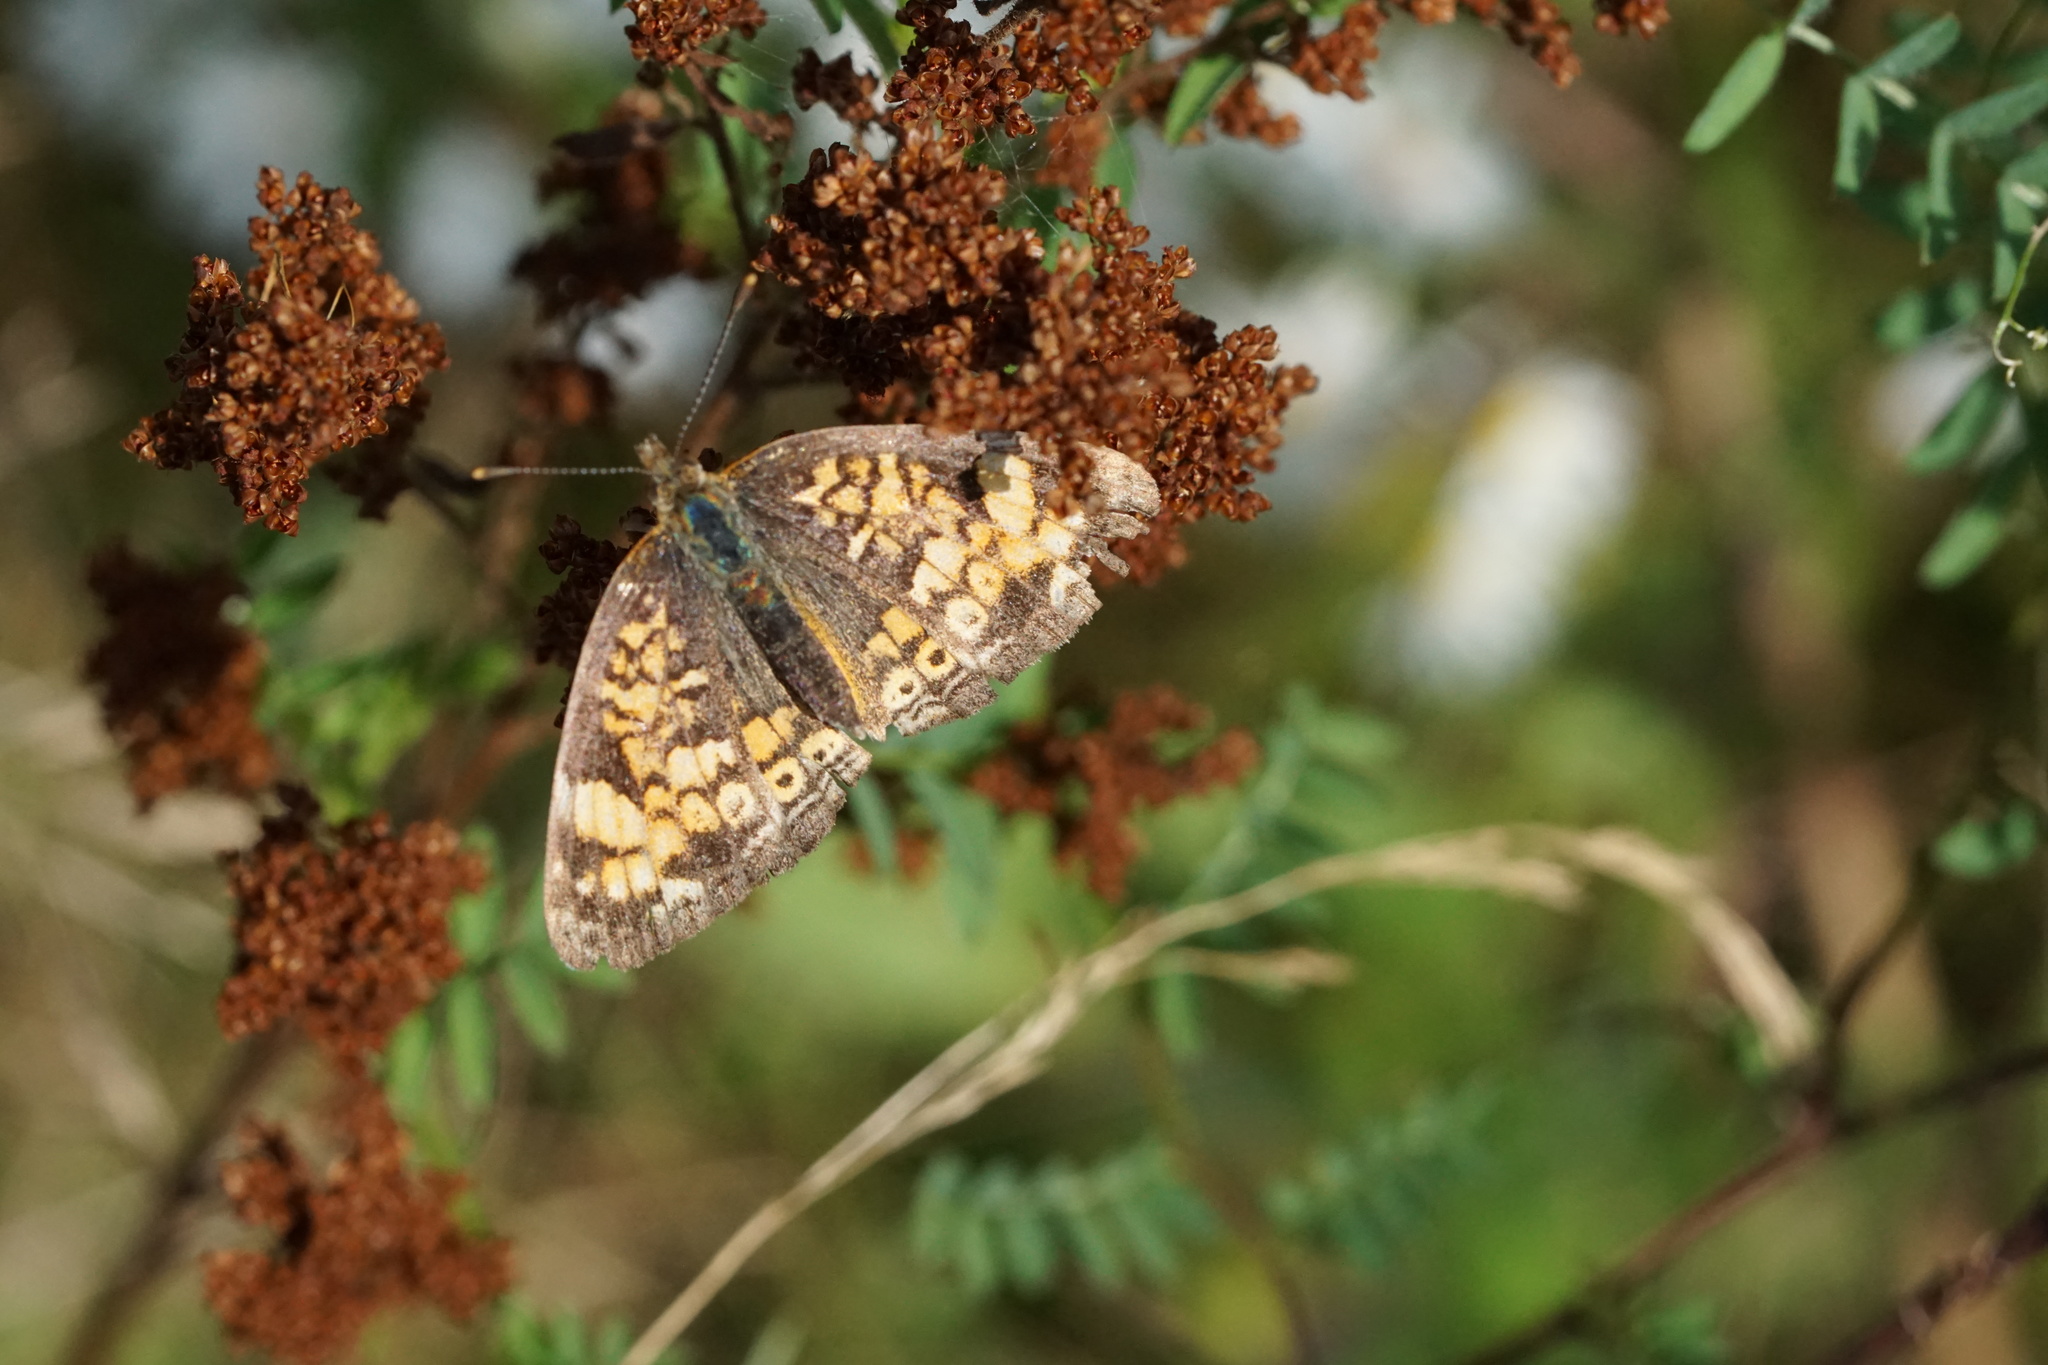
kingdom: Animalia
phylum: Arthropoda
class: Insecta
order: Lepidoptera
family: Nymphalidae
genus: Phyciodes
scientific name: Phyciodes tharos
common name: Pearl crescent
